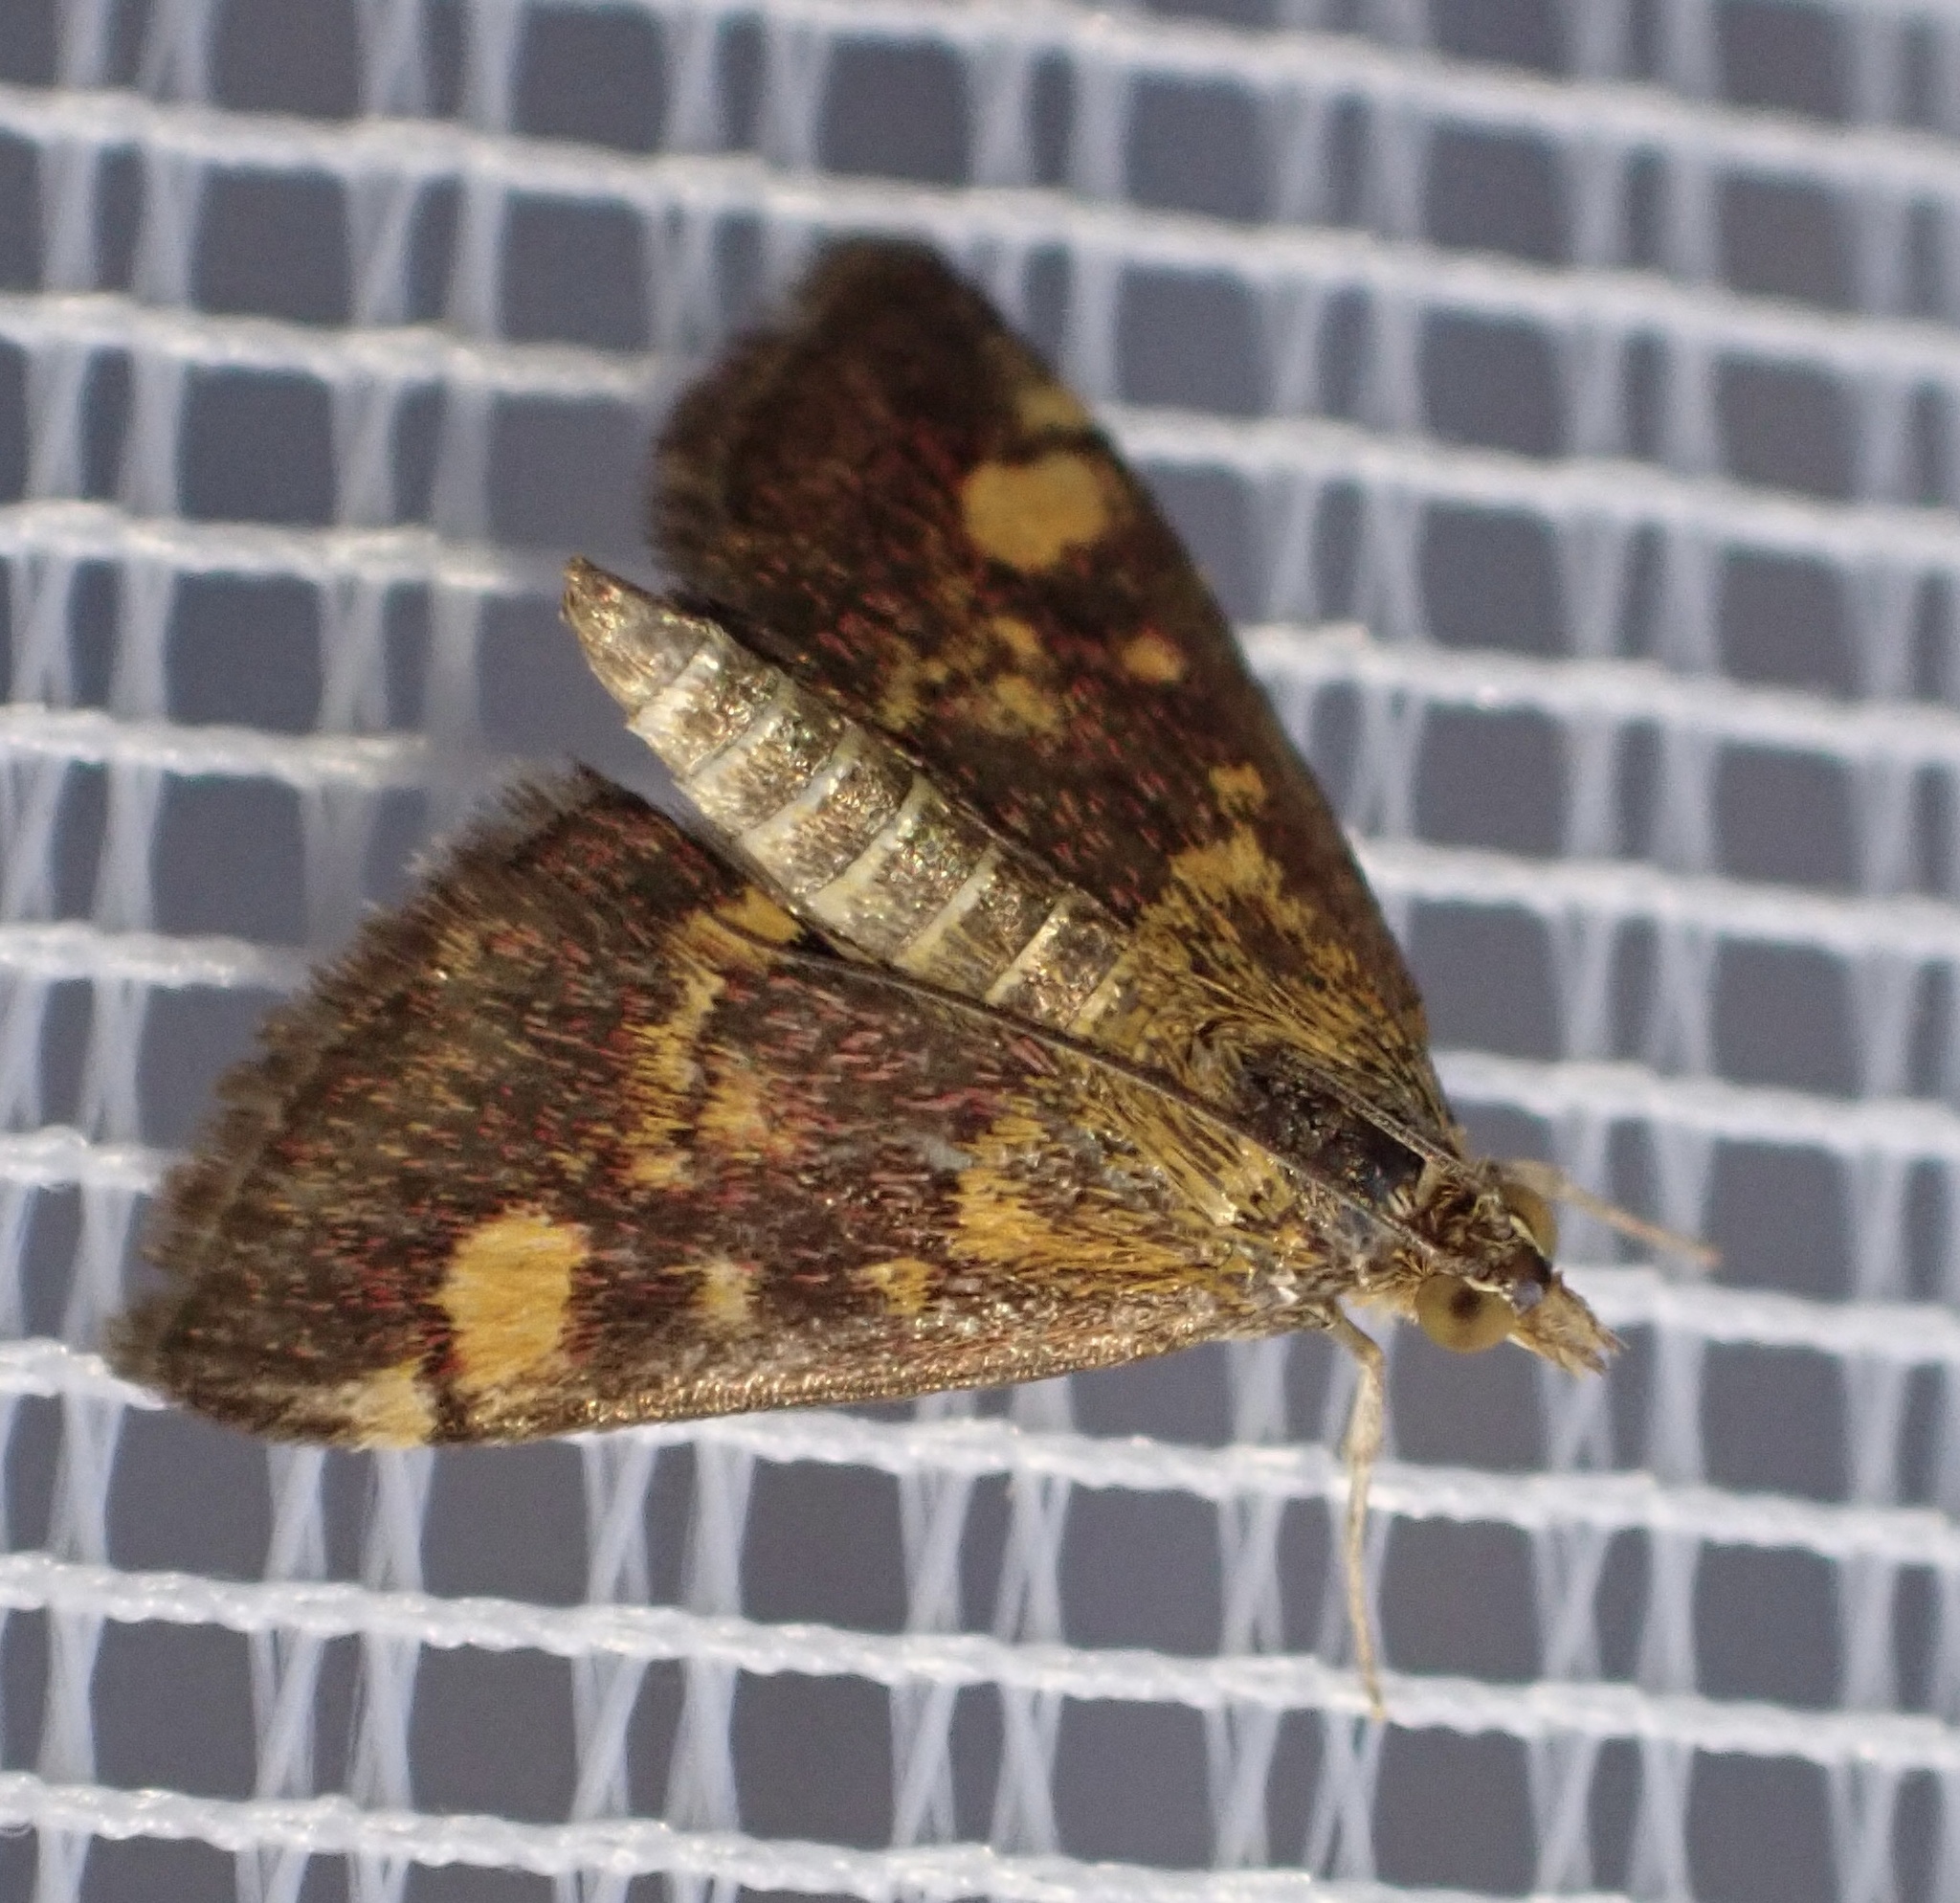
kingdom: Animalia
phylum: Arthropoda
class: Insecta
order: Lepidoptera
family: Crambidae
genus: Pyrausta
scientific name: Pyrausta aurata
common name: Small purple & gold
